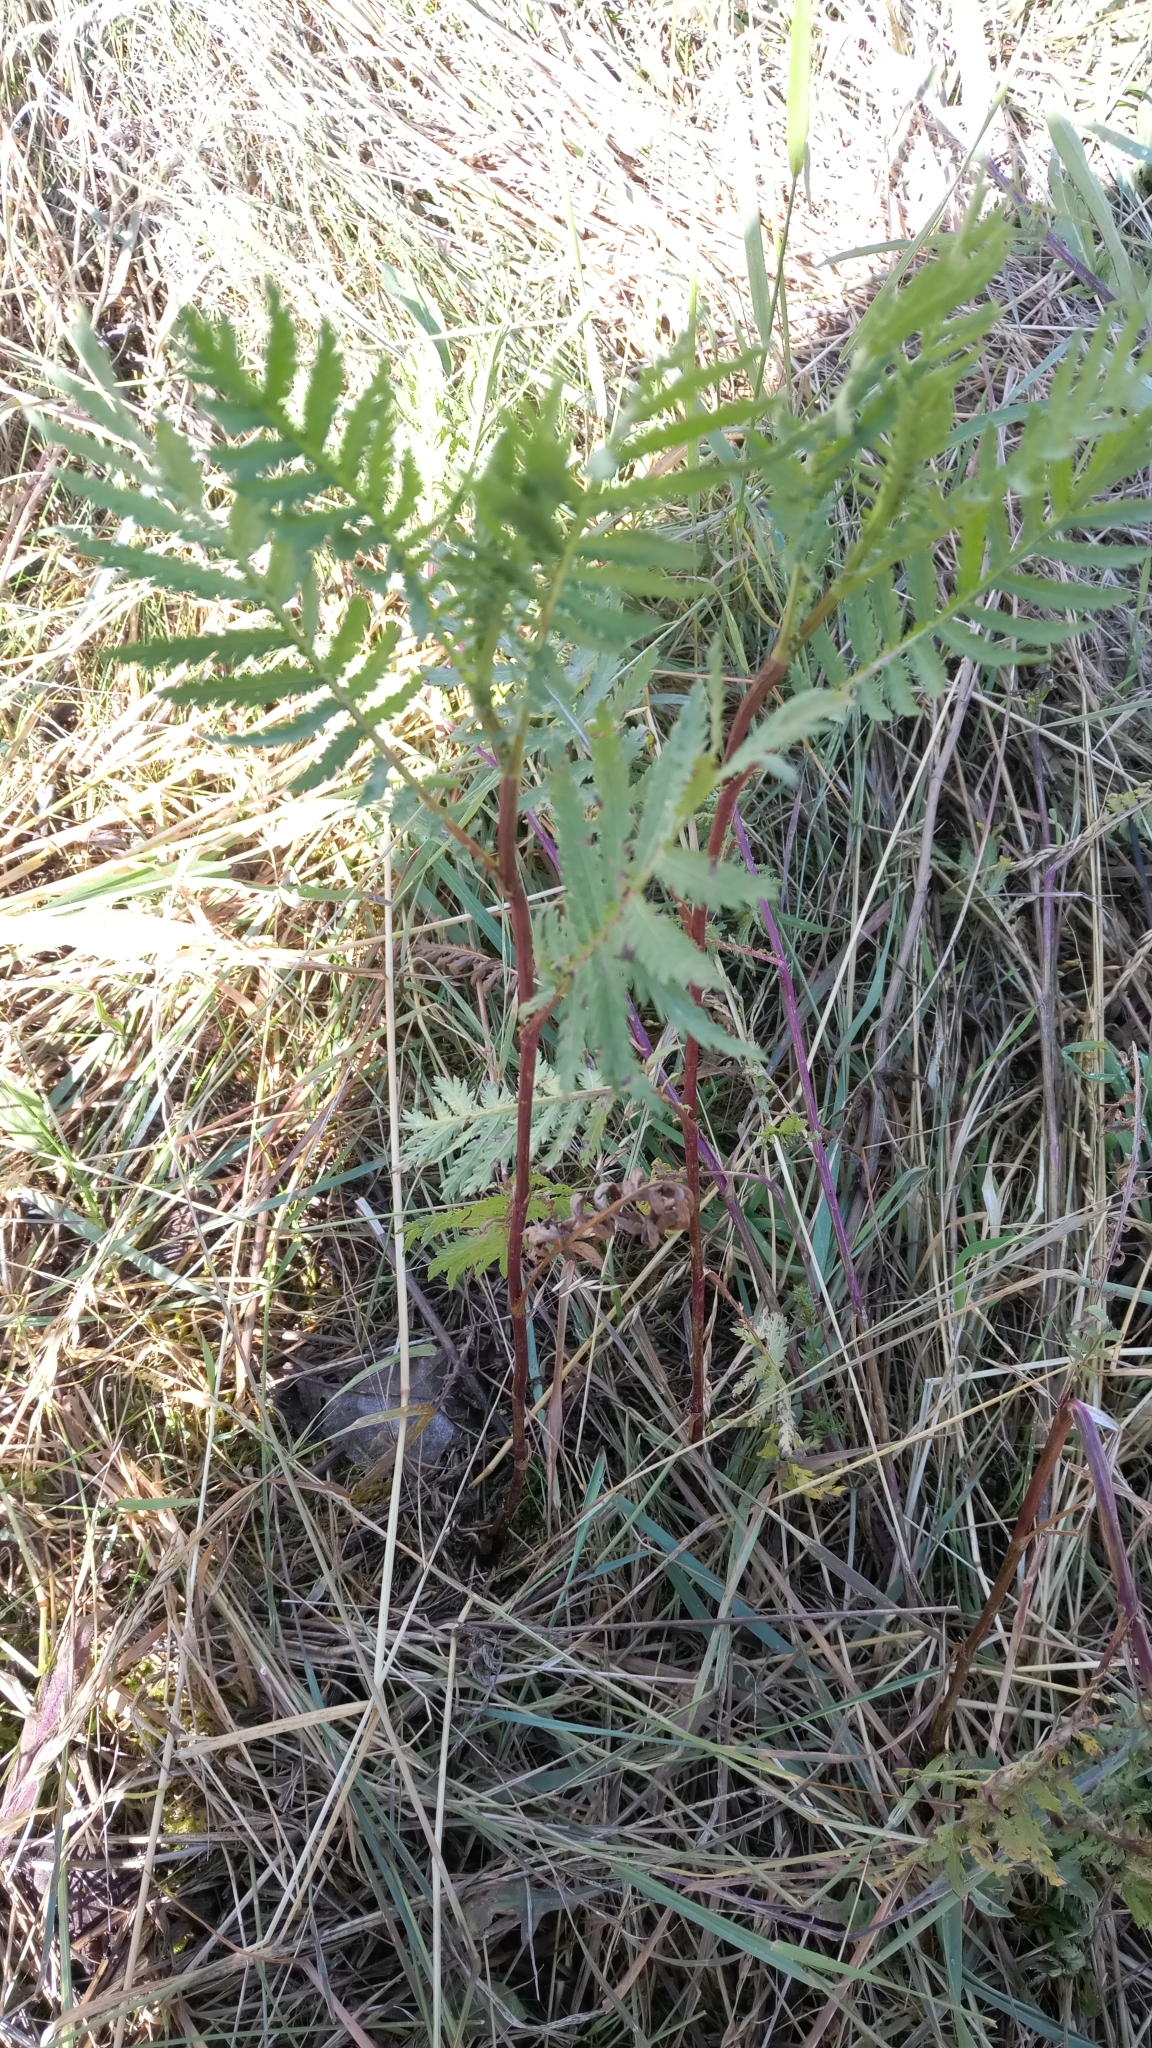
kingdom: Plantae
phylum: Tracheophyta
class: Magnoliopsida
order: Asterales
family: Asteraceae
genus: Tanacetum
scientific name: Tanacetum vulgare
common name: Common tansy
